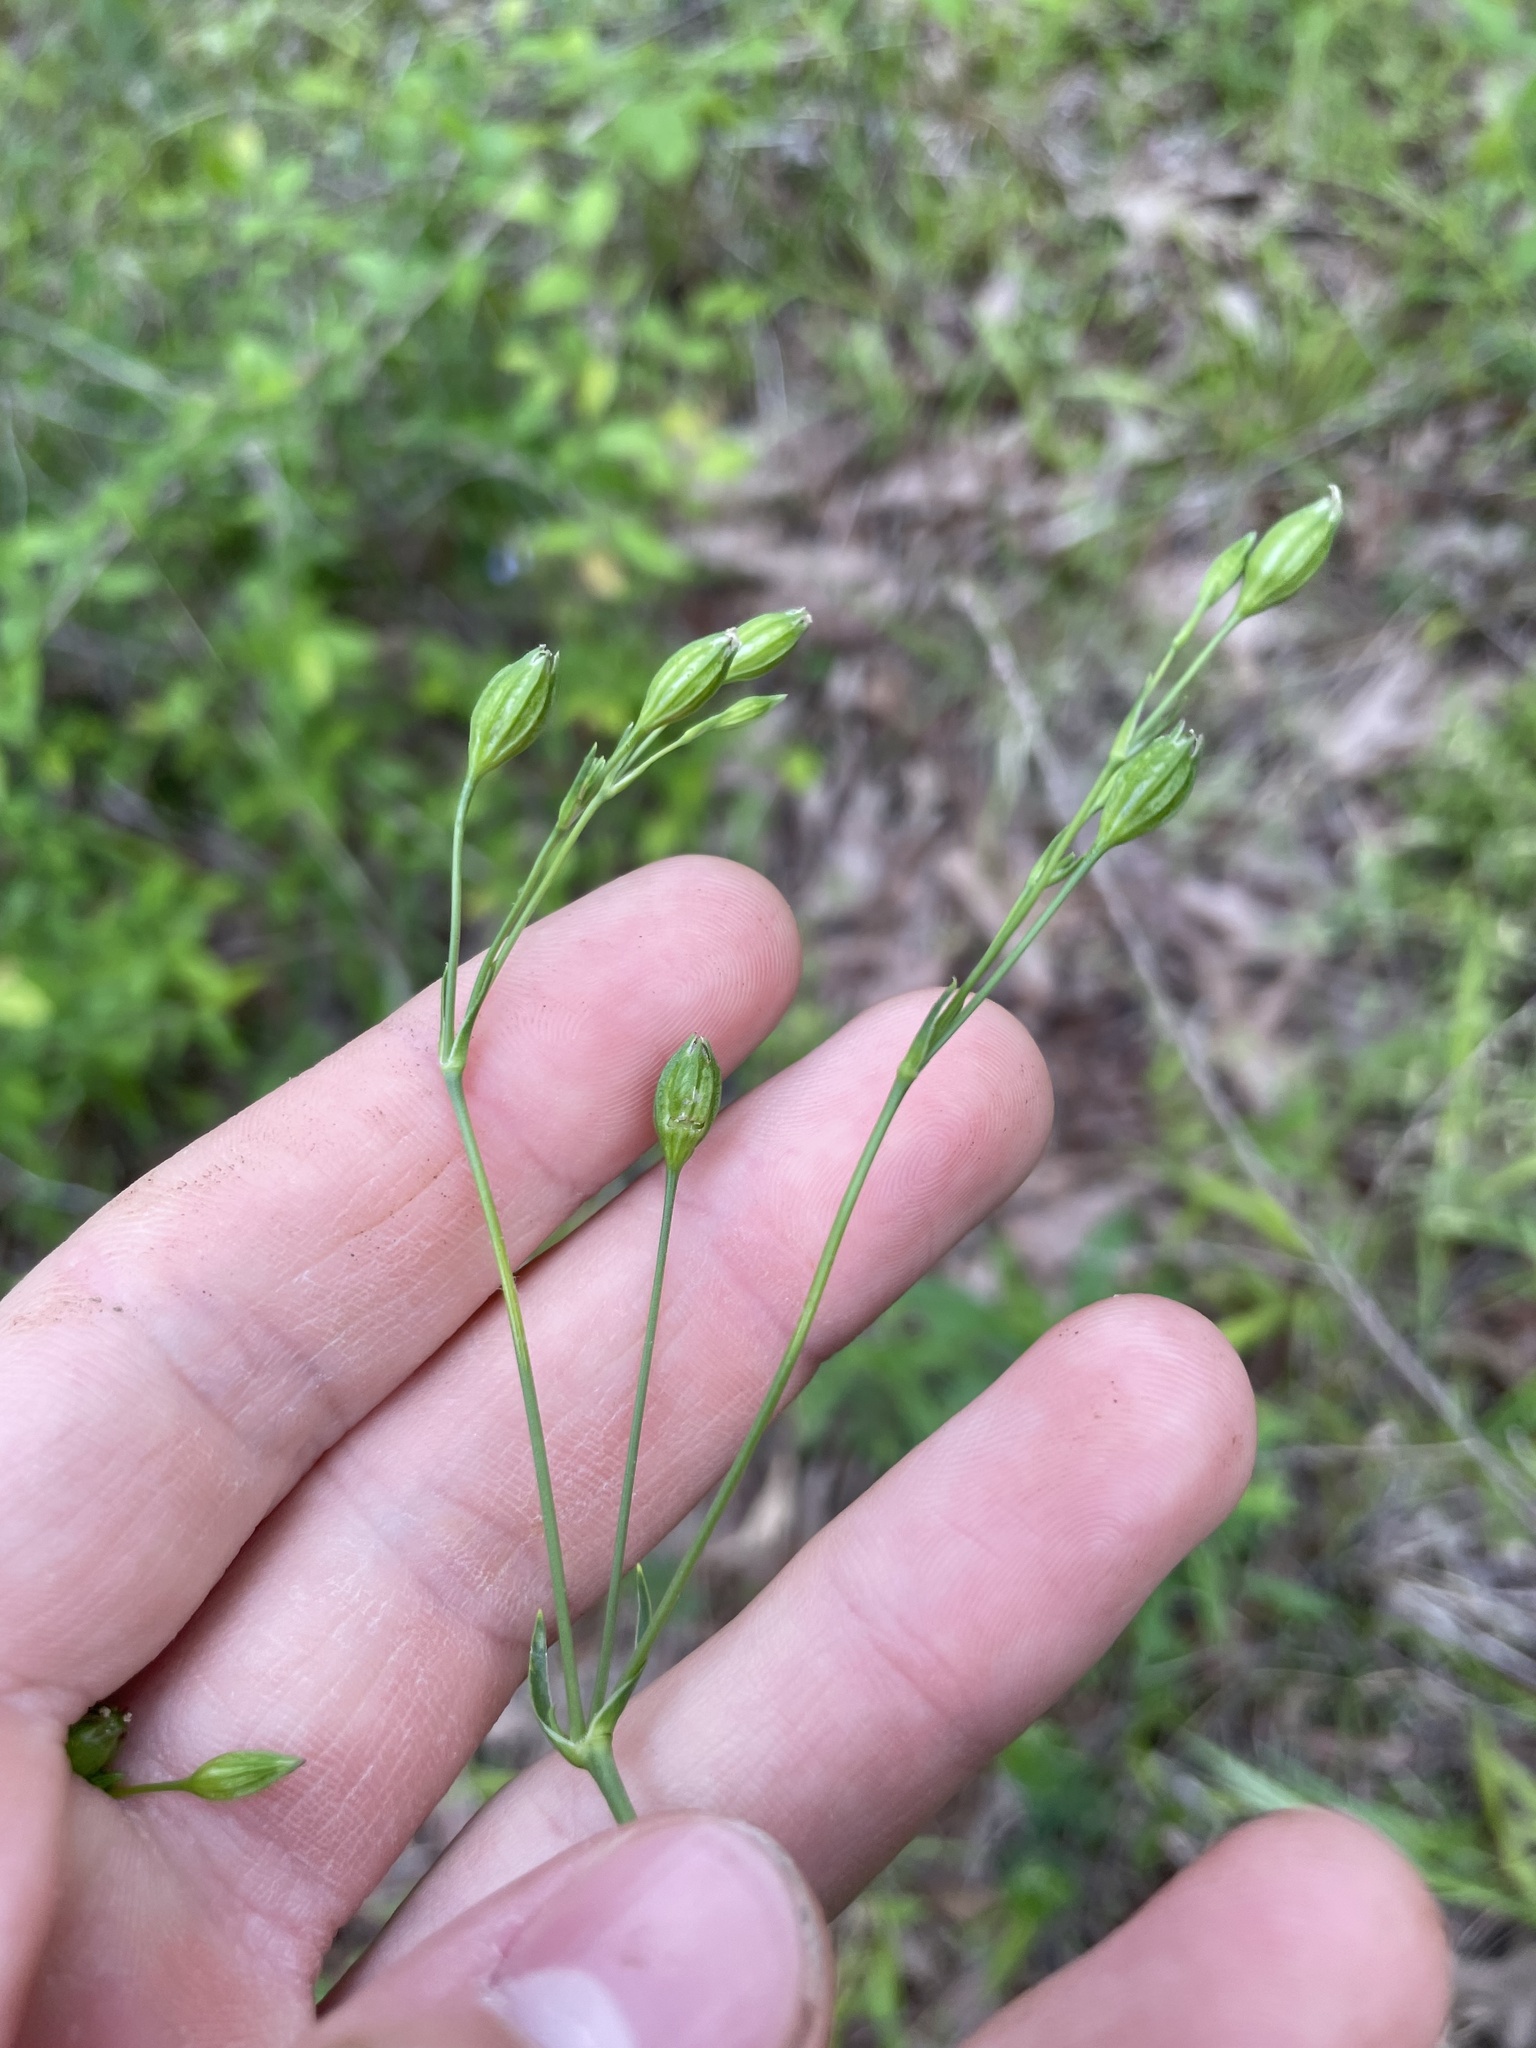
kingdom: Plantae
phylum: Tracheophyta
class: Magnoliopsida
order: Caryophyllales
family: Caryophyllaceae
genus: Silene
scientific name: Silene antirrhina
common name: Sleepy catchfly
